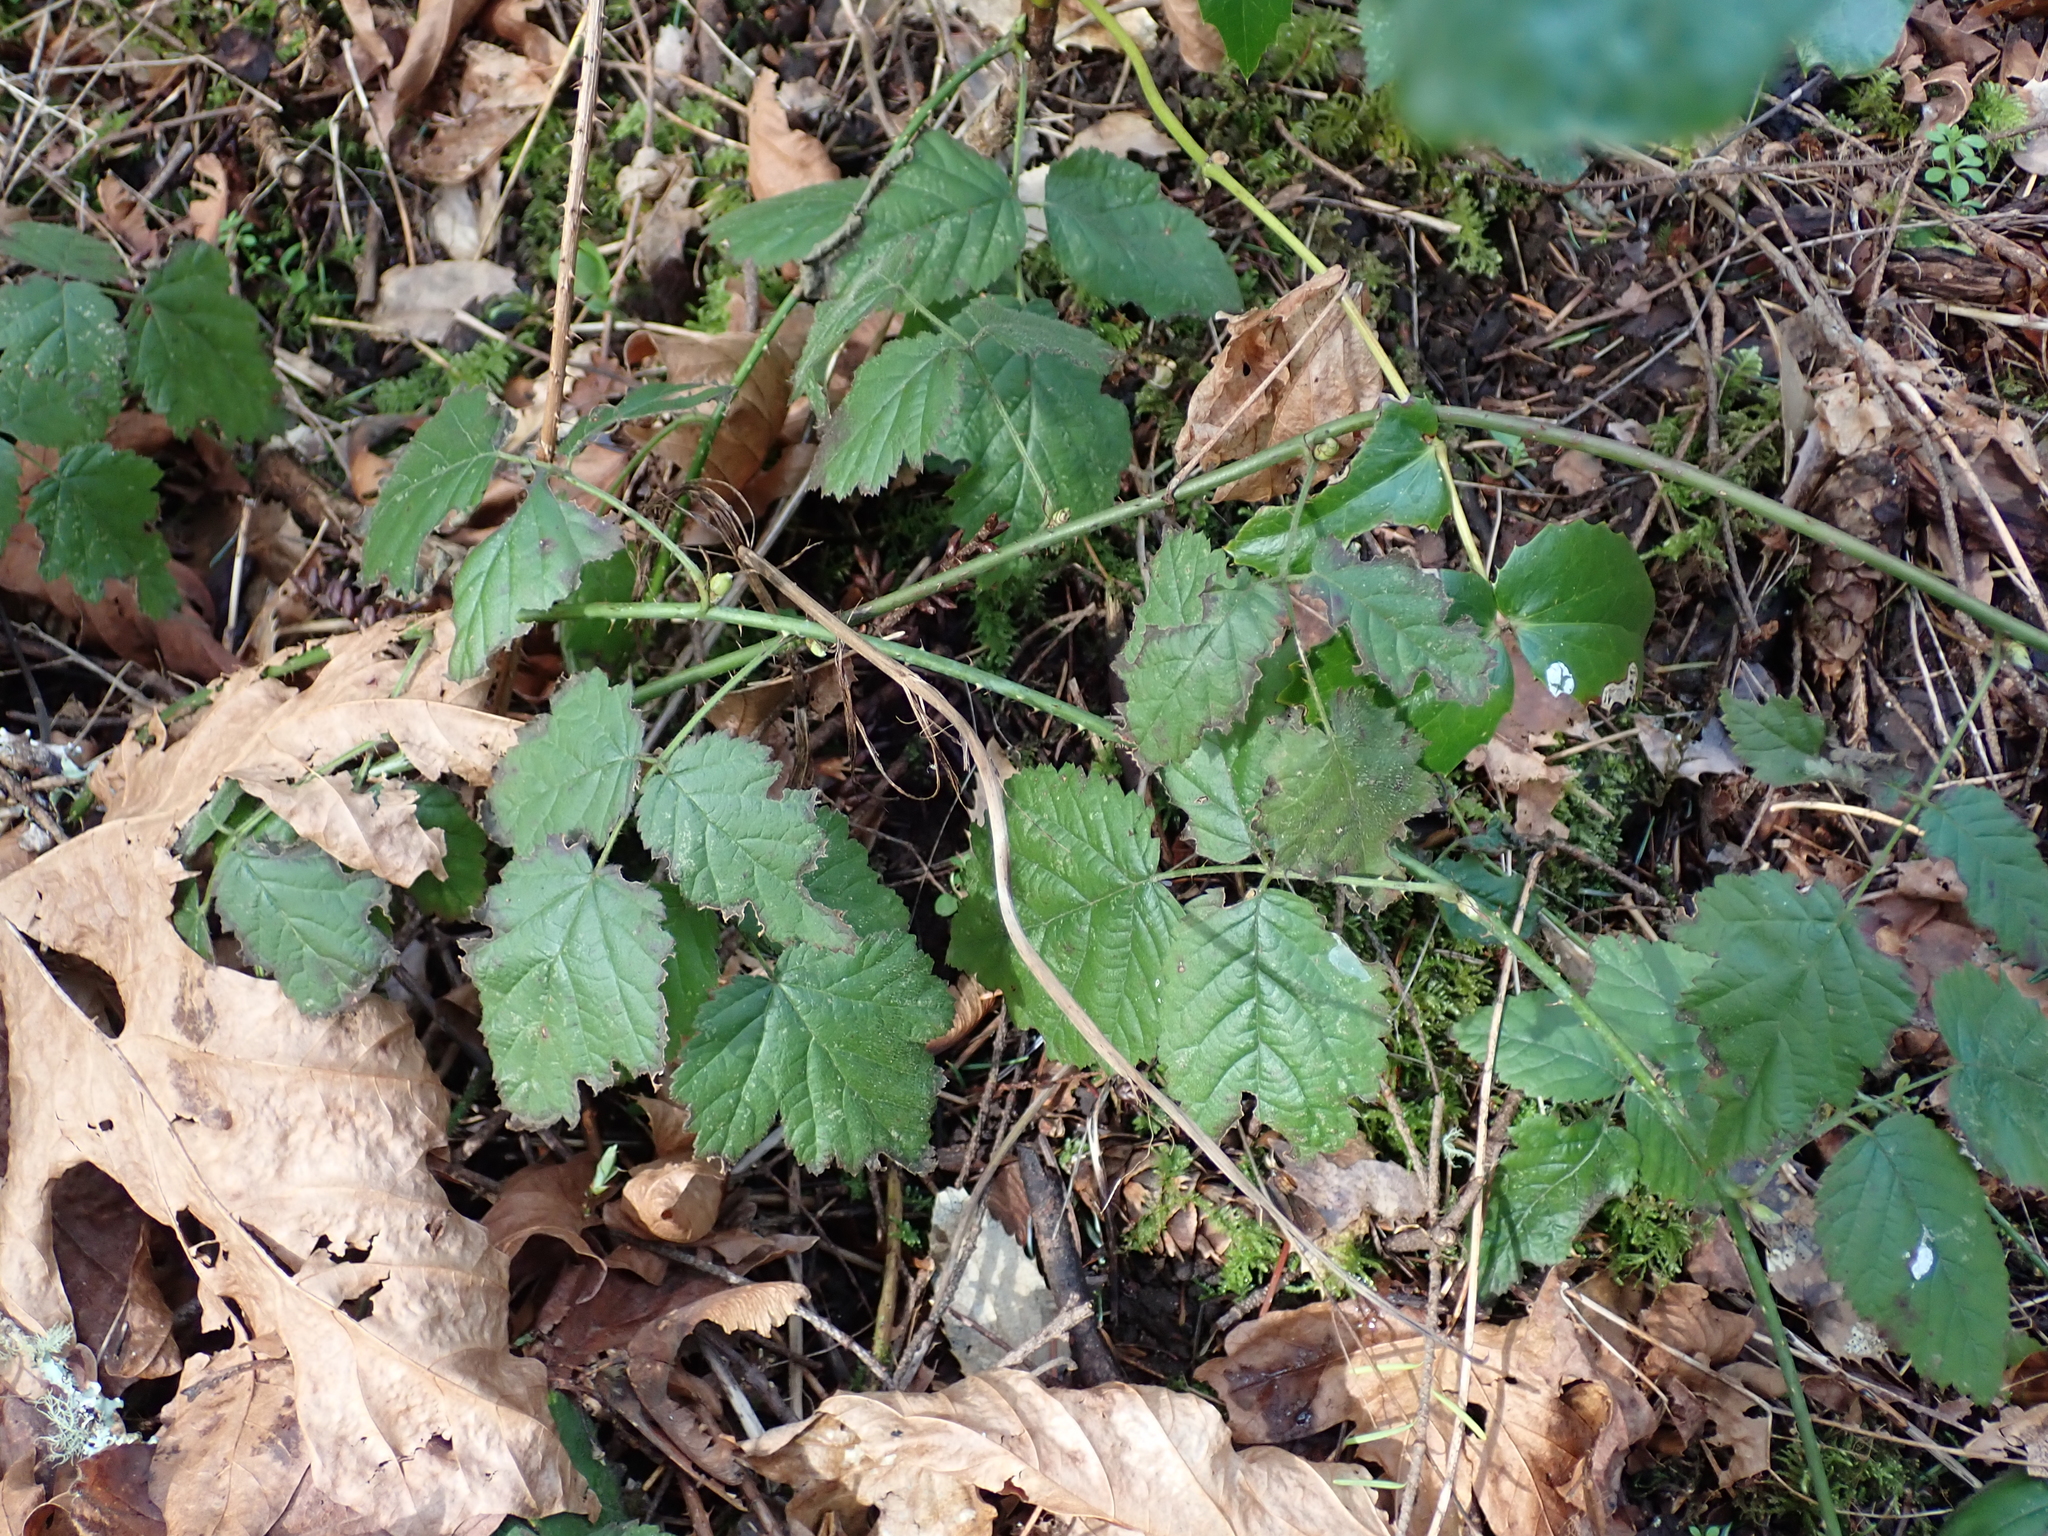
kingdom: Plantae
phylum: Tracheophyta
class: Magnoliopsida
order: Rosales
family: Rosaceae
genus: Rubus
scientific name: Rubus ursinus
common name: Pacific blackberry
